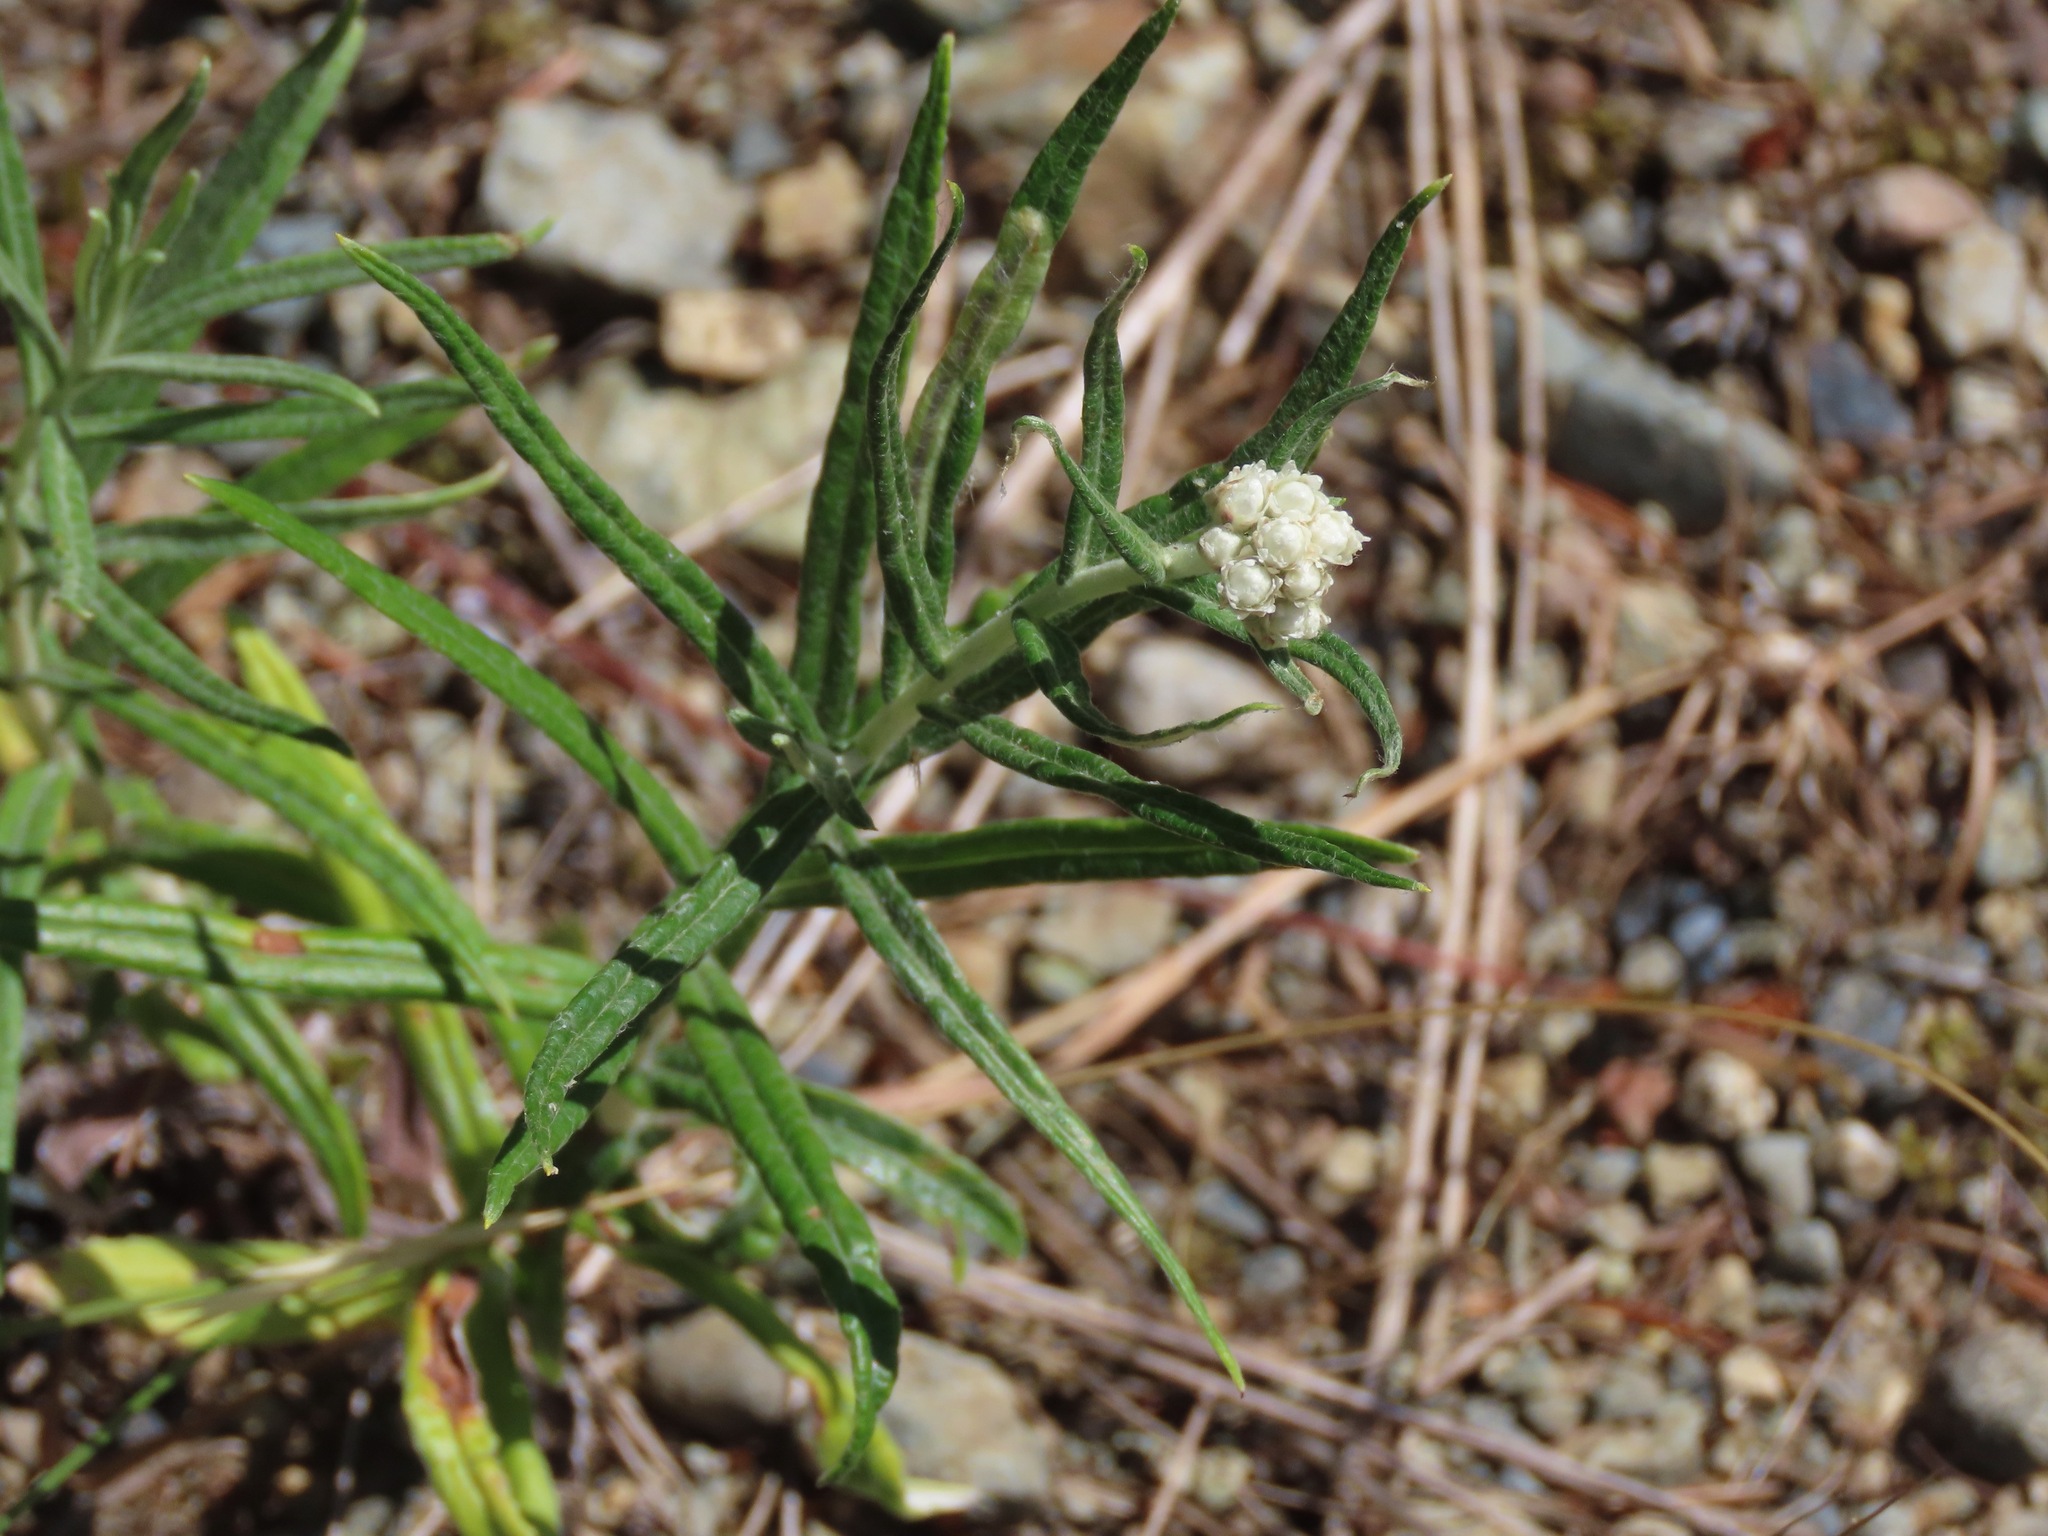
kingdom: Plantae
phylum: Tracheophyta
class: Magnoliopsida
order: Asterales
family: Asteraceae
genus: Anaphalis
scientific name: Anaphalis margaritacea
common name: Pearly everlasting
